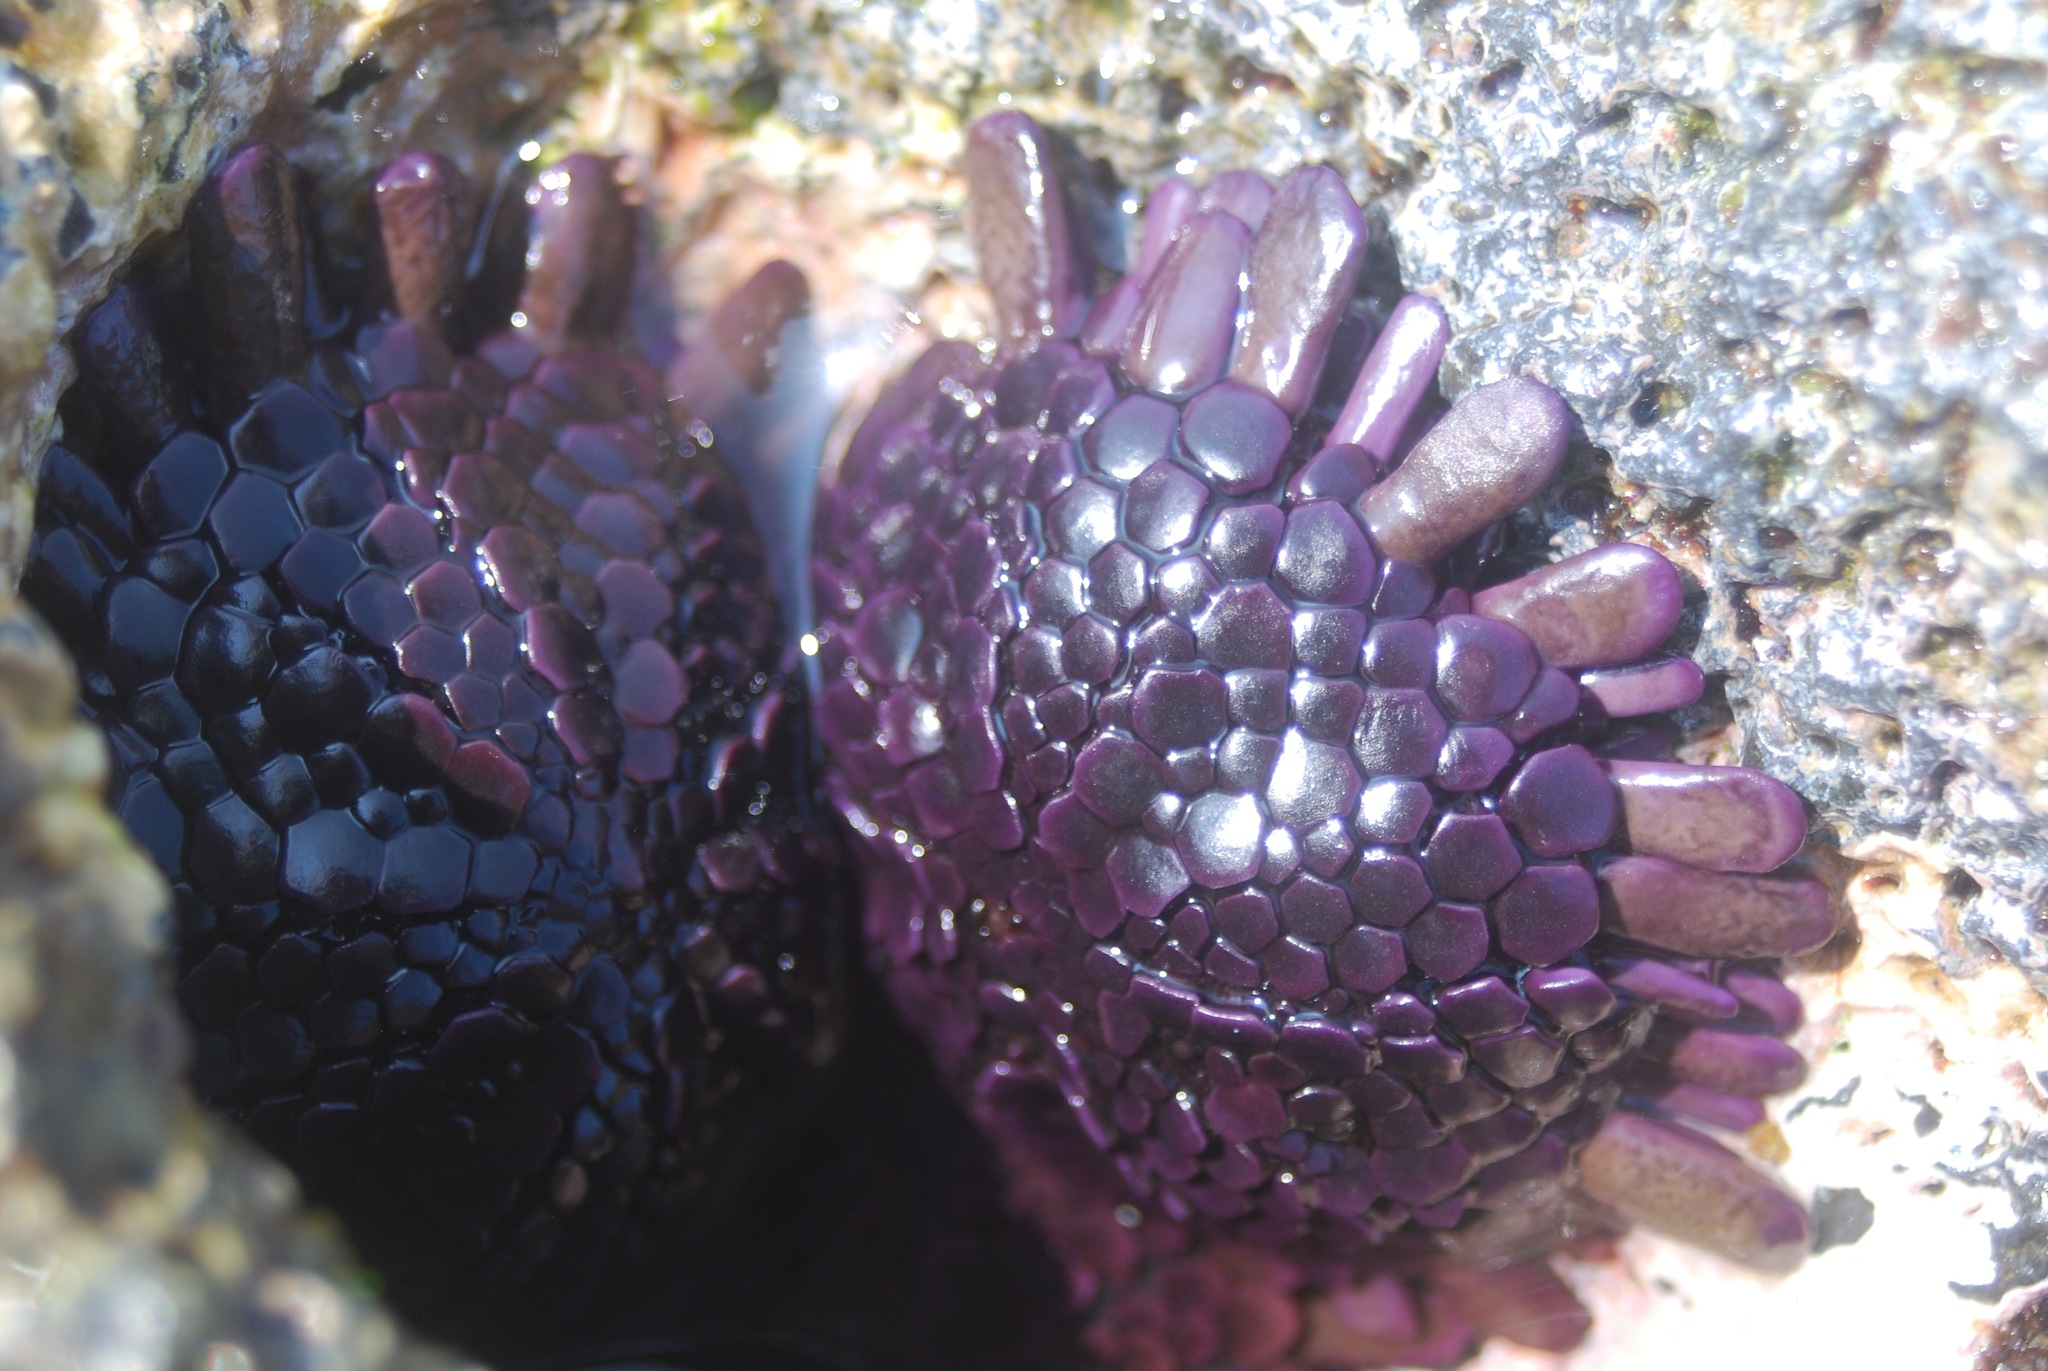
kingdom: Animalia
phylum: Echinodermata
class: Echinoidea
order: Camarodonta
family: Echinometridae
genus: Colobocentrotus
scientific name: Colobocentrotus atratus
